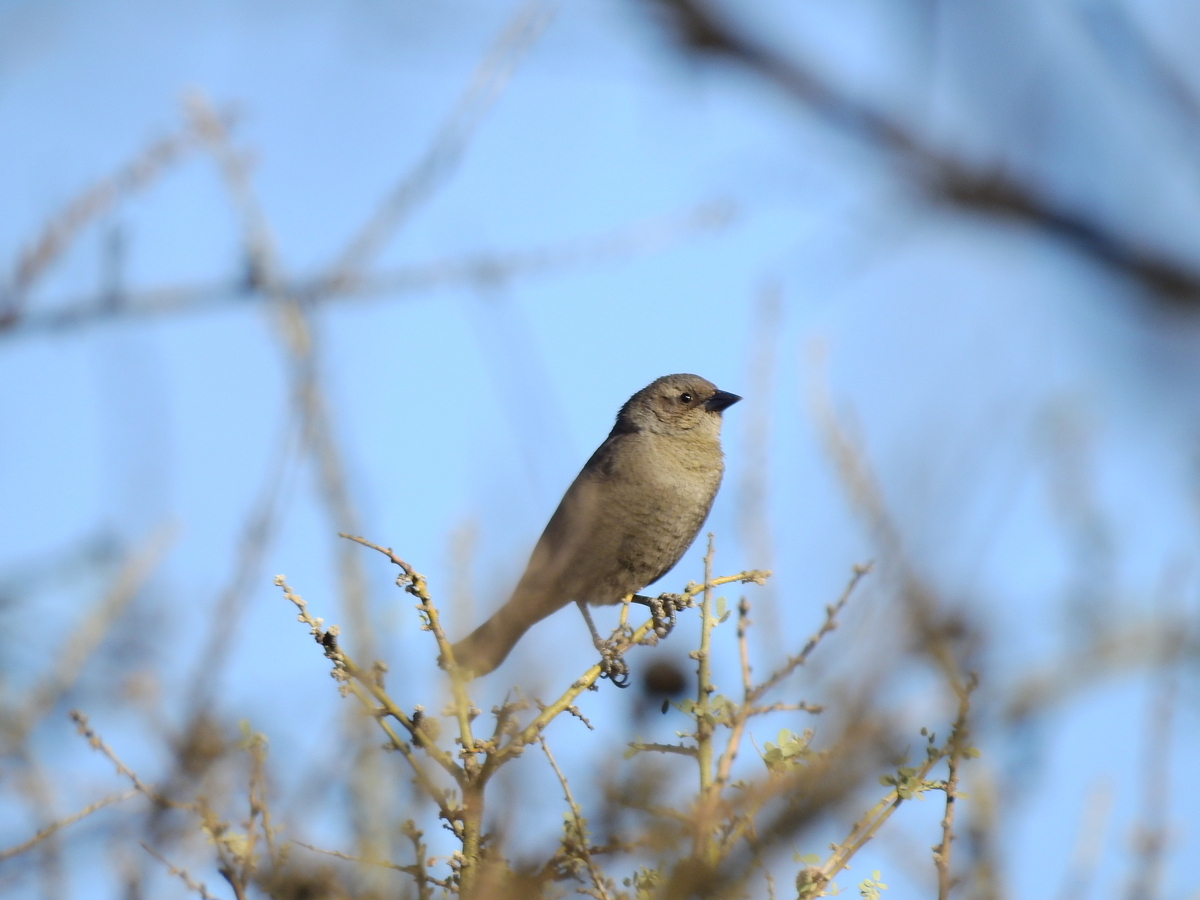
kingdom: Animalia
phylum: Chordata
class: Aves
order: Passeriformes
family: Icteridae
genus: Molothrus
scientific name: Molothrus bonariensis
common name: Shiny cowbird
